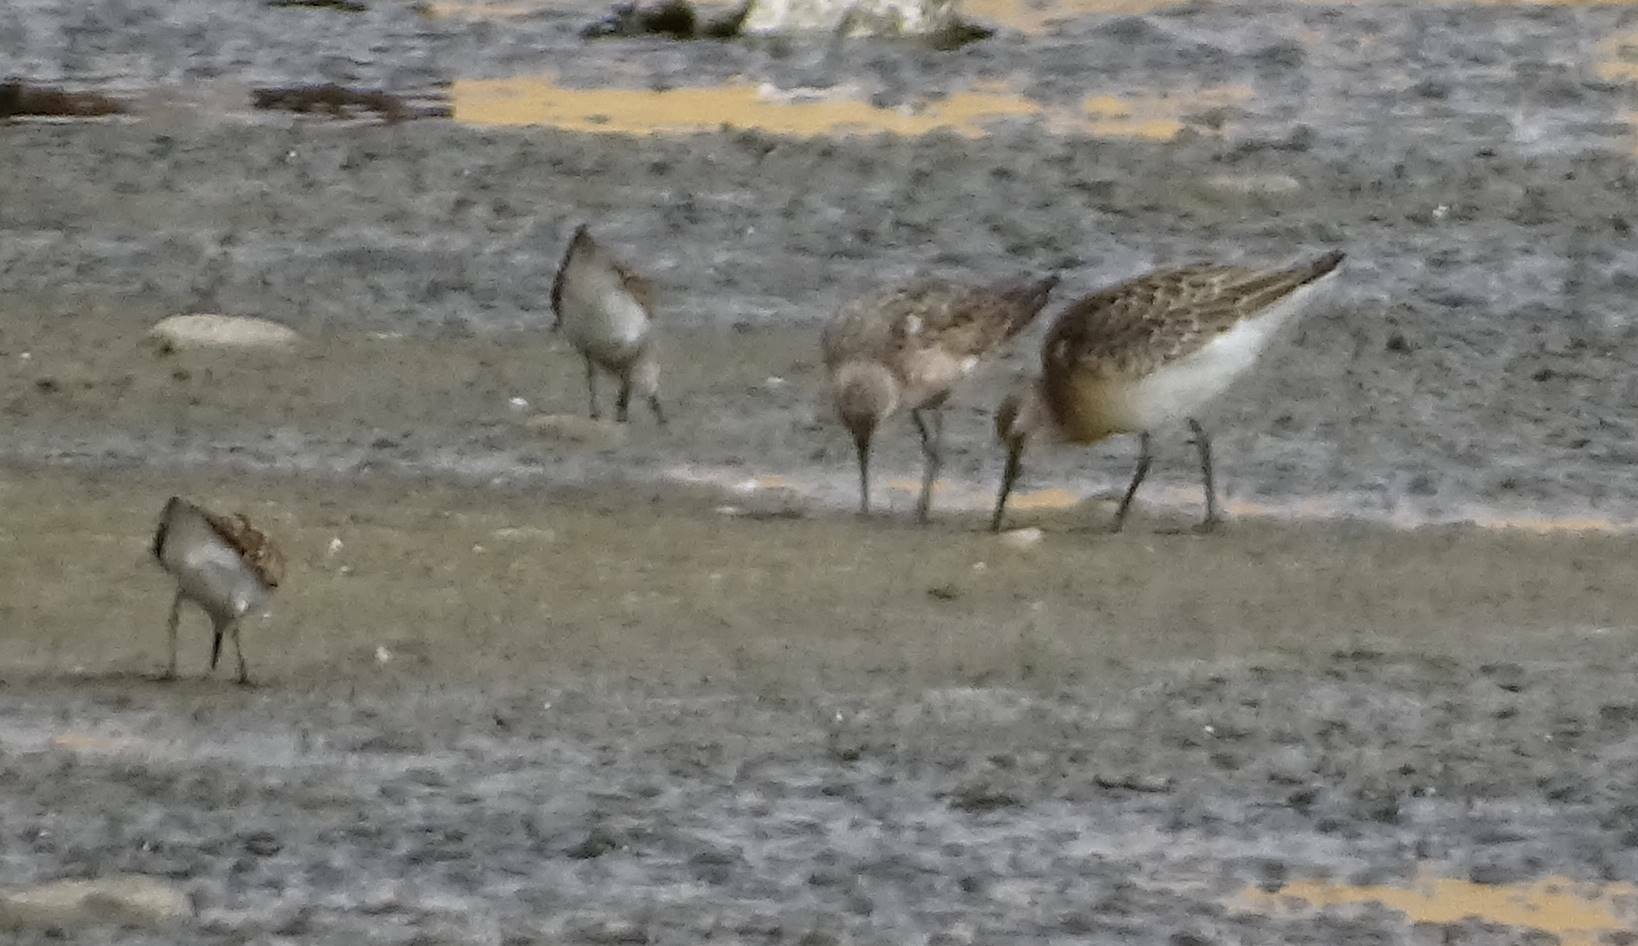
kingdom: Animalia
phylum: Chordata
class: Aves
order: Charadriiformes
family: Scolopacidae
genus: Calidris
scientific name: Calidris ferruginea
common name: Curlew sandpiper
